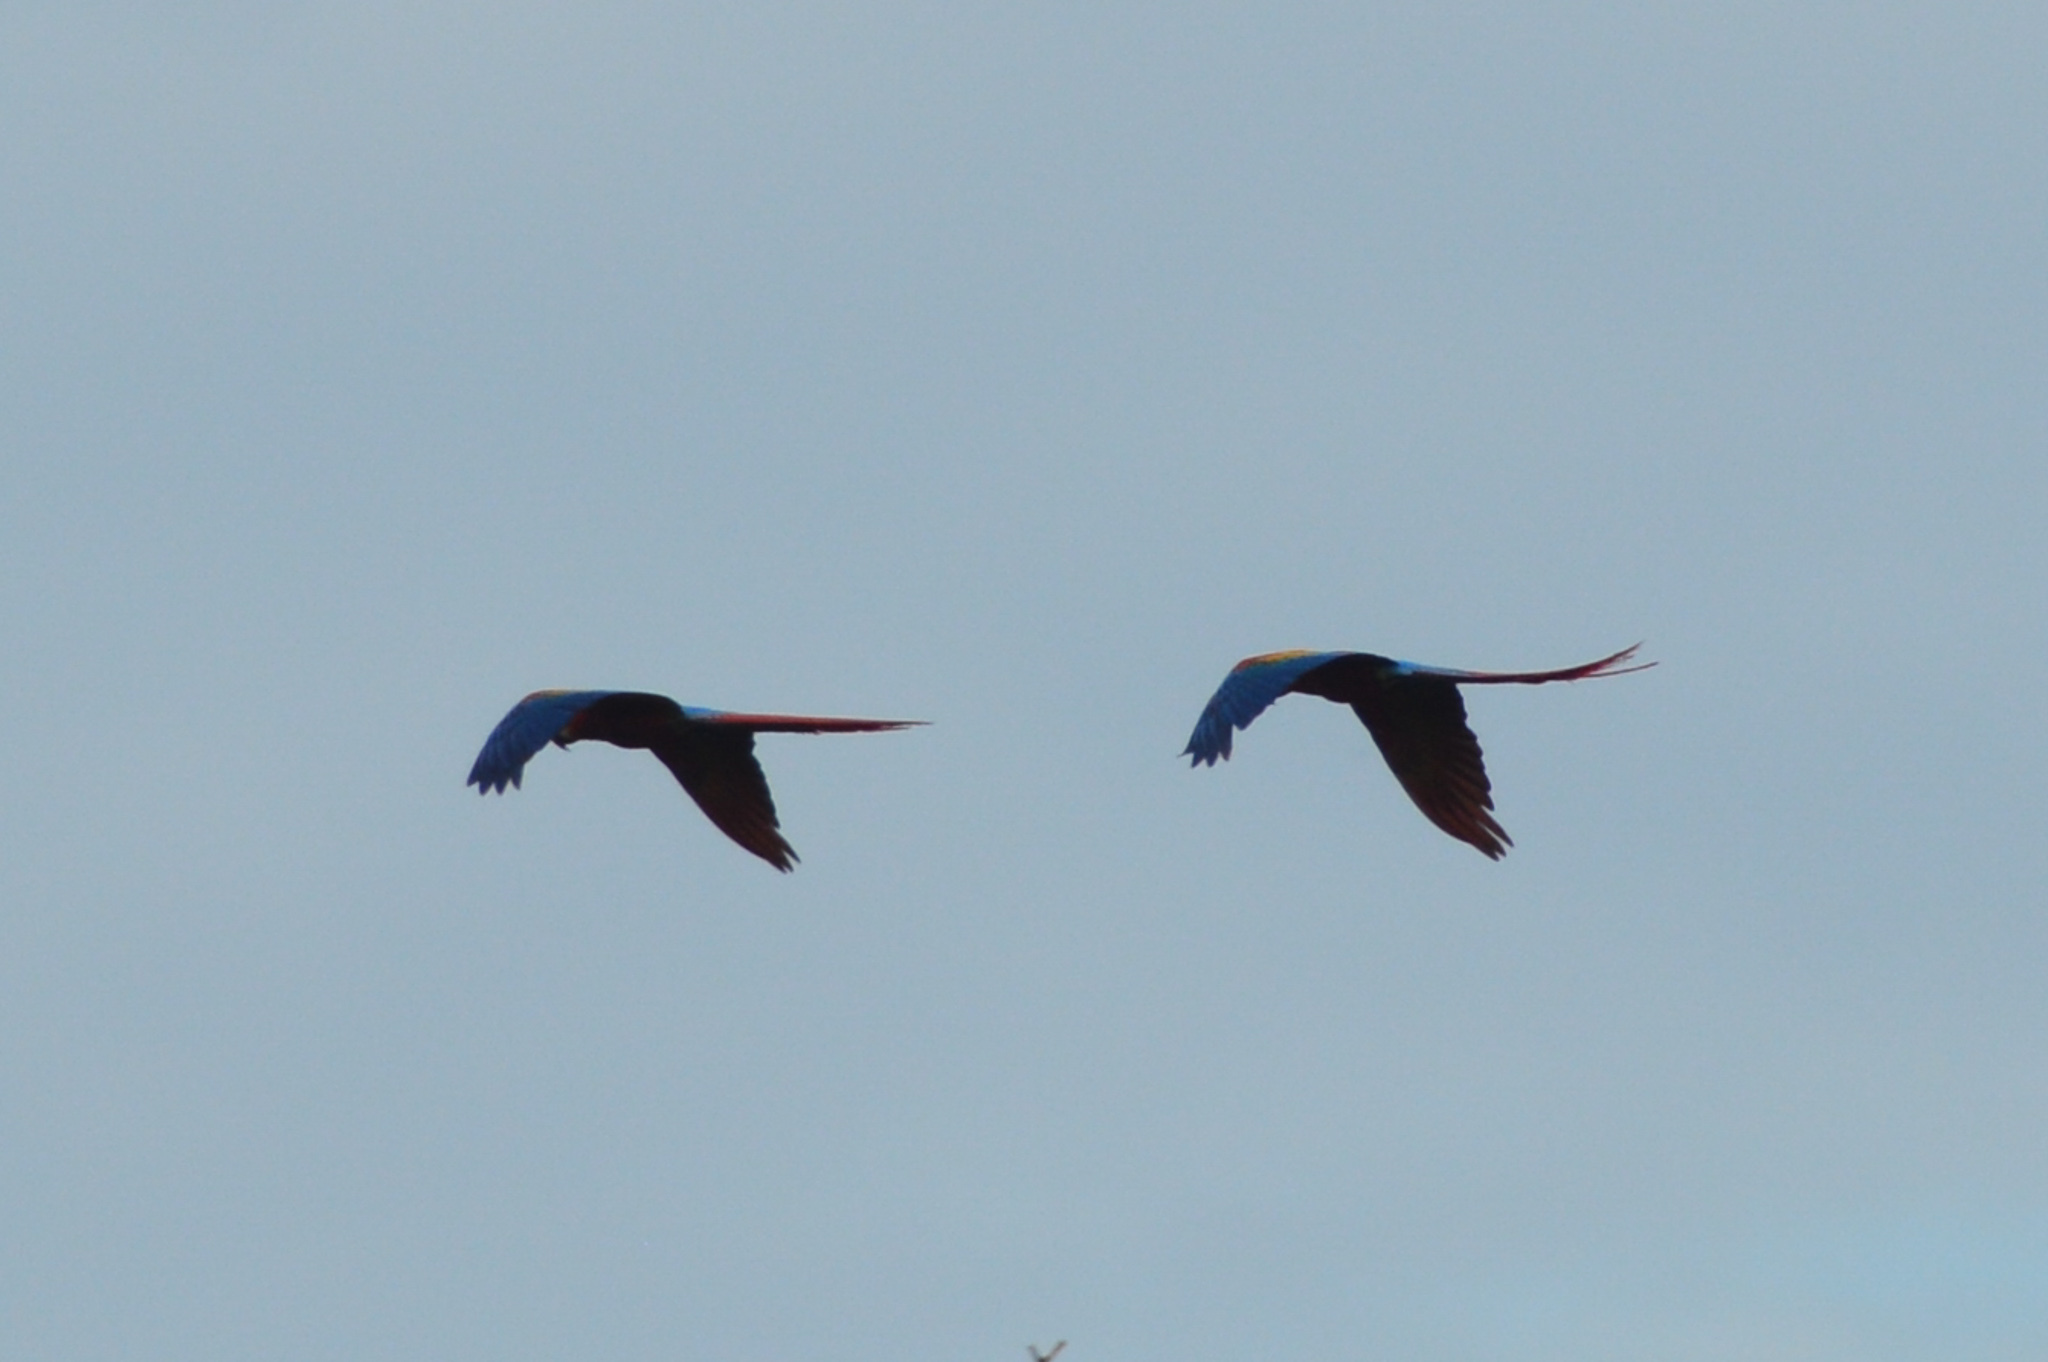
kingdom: Animalia
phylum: Chordata
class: Aves
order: Psittaciformes
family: Psittacidae
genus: Ara
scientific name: Ara macao
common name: Scarlet macaw
